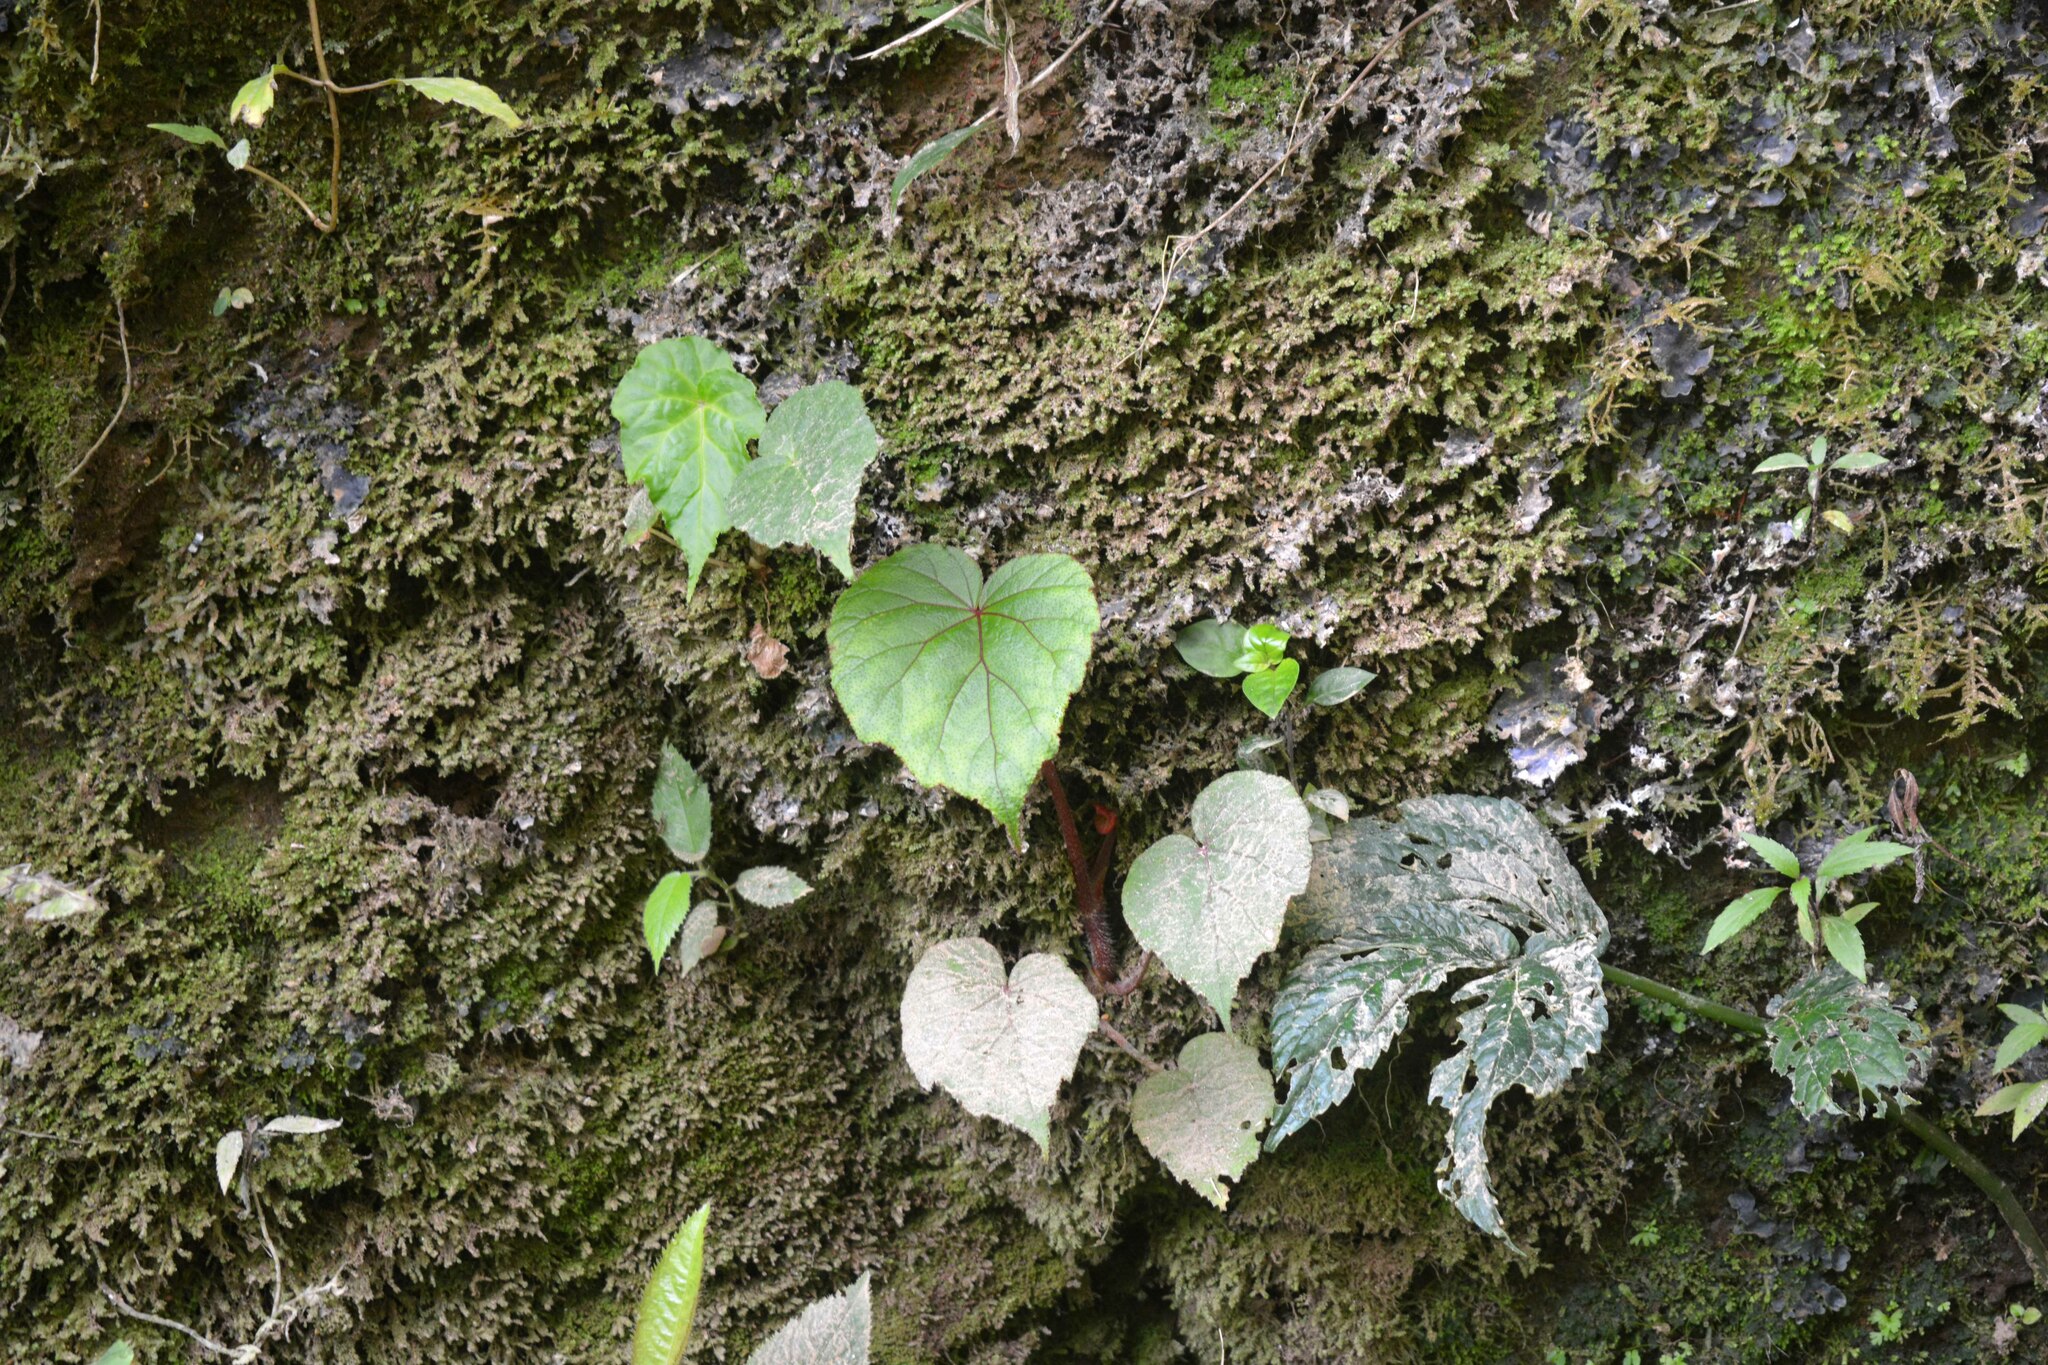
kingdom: Plantae
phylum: Tracheophyta
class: Magnoliopsida
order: Cucurbitales
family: Begoniaceae
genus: Begonia
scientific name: Begonia areolata
